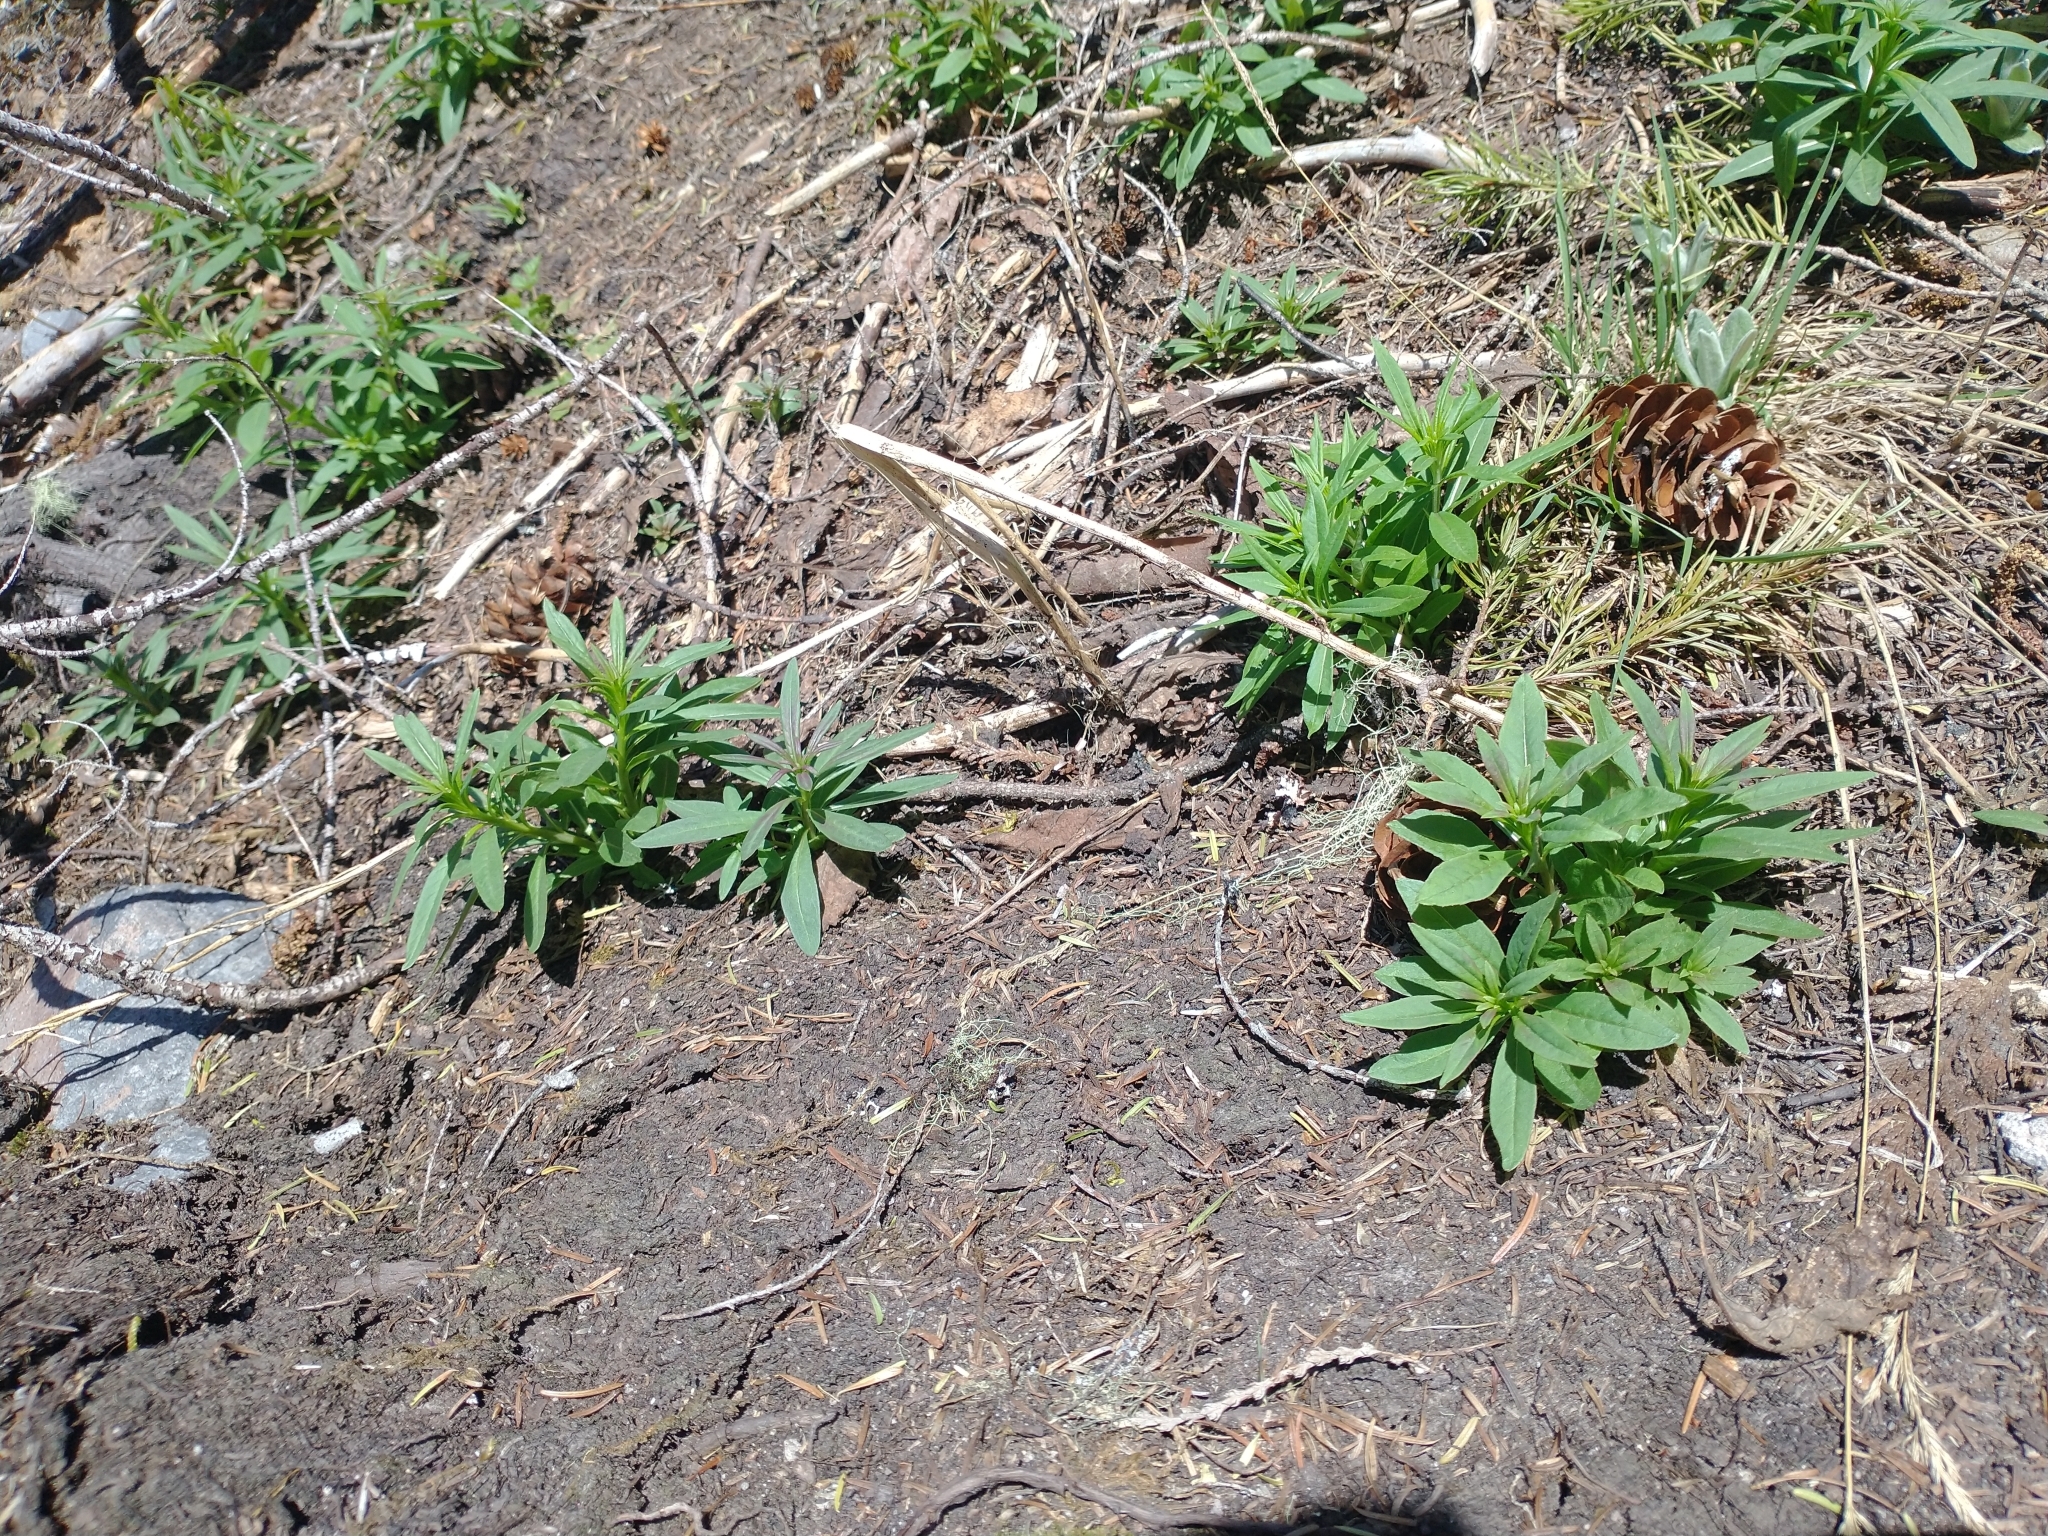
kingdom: Plantae
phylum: Tracheophyta
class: Magnoliopsida
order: Myrtales
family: Onagraceae
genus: Chamaenerion
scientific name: Chamaenerion angustifolium
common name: Fireweed
